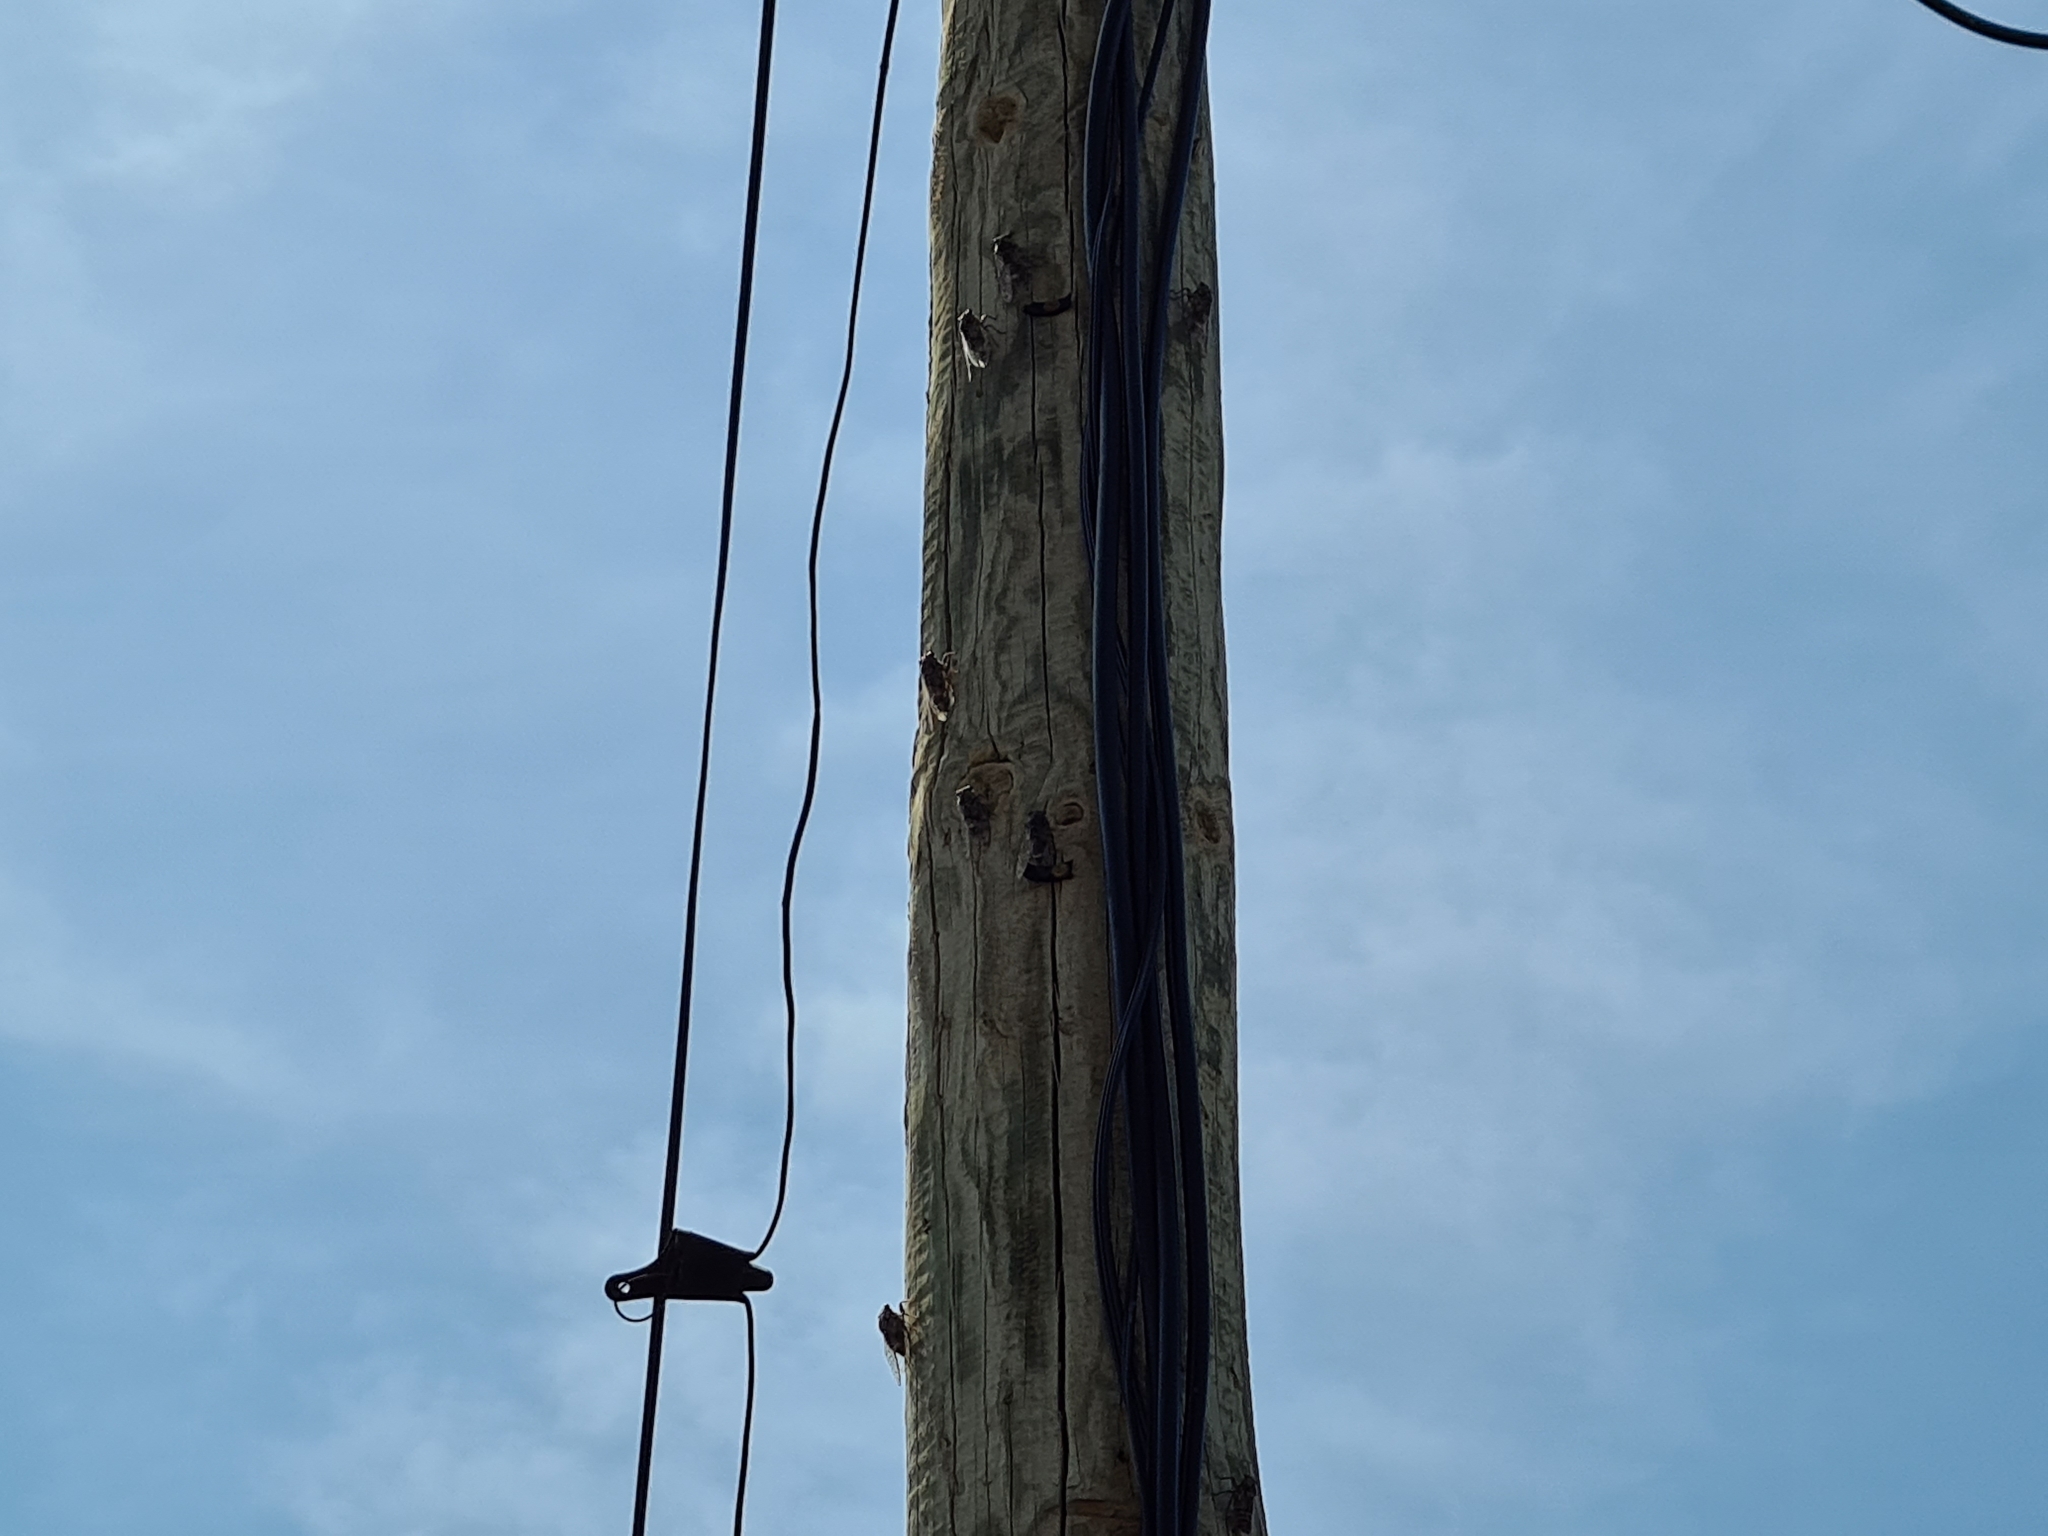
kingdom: Animalia
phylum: Arthropoda
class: Insecta
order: Hemiptera
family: Cicadidae
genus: Cicada
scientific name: Cicada orni
